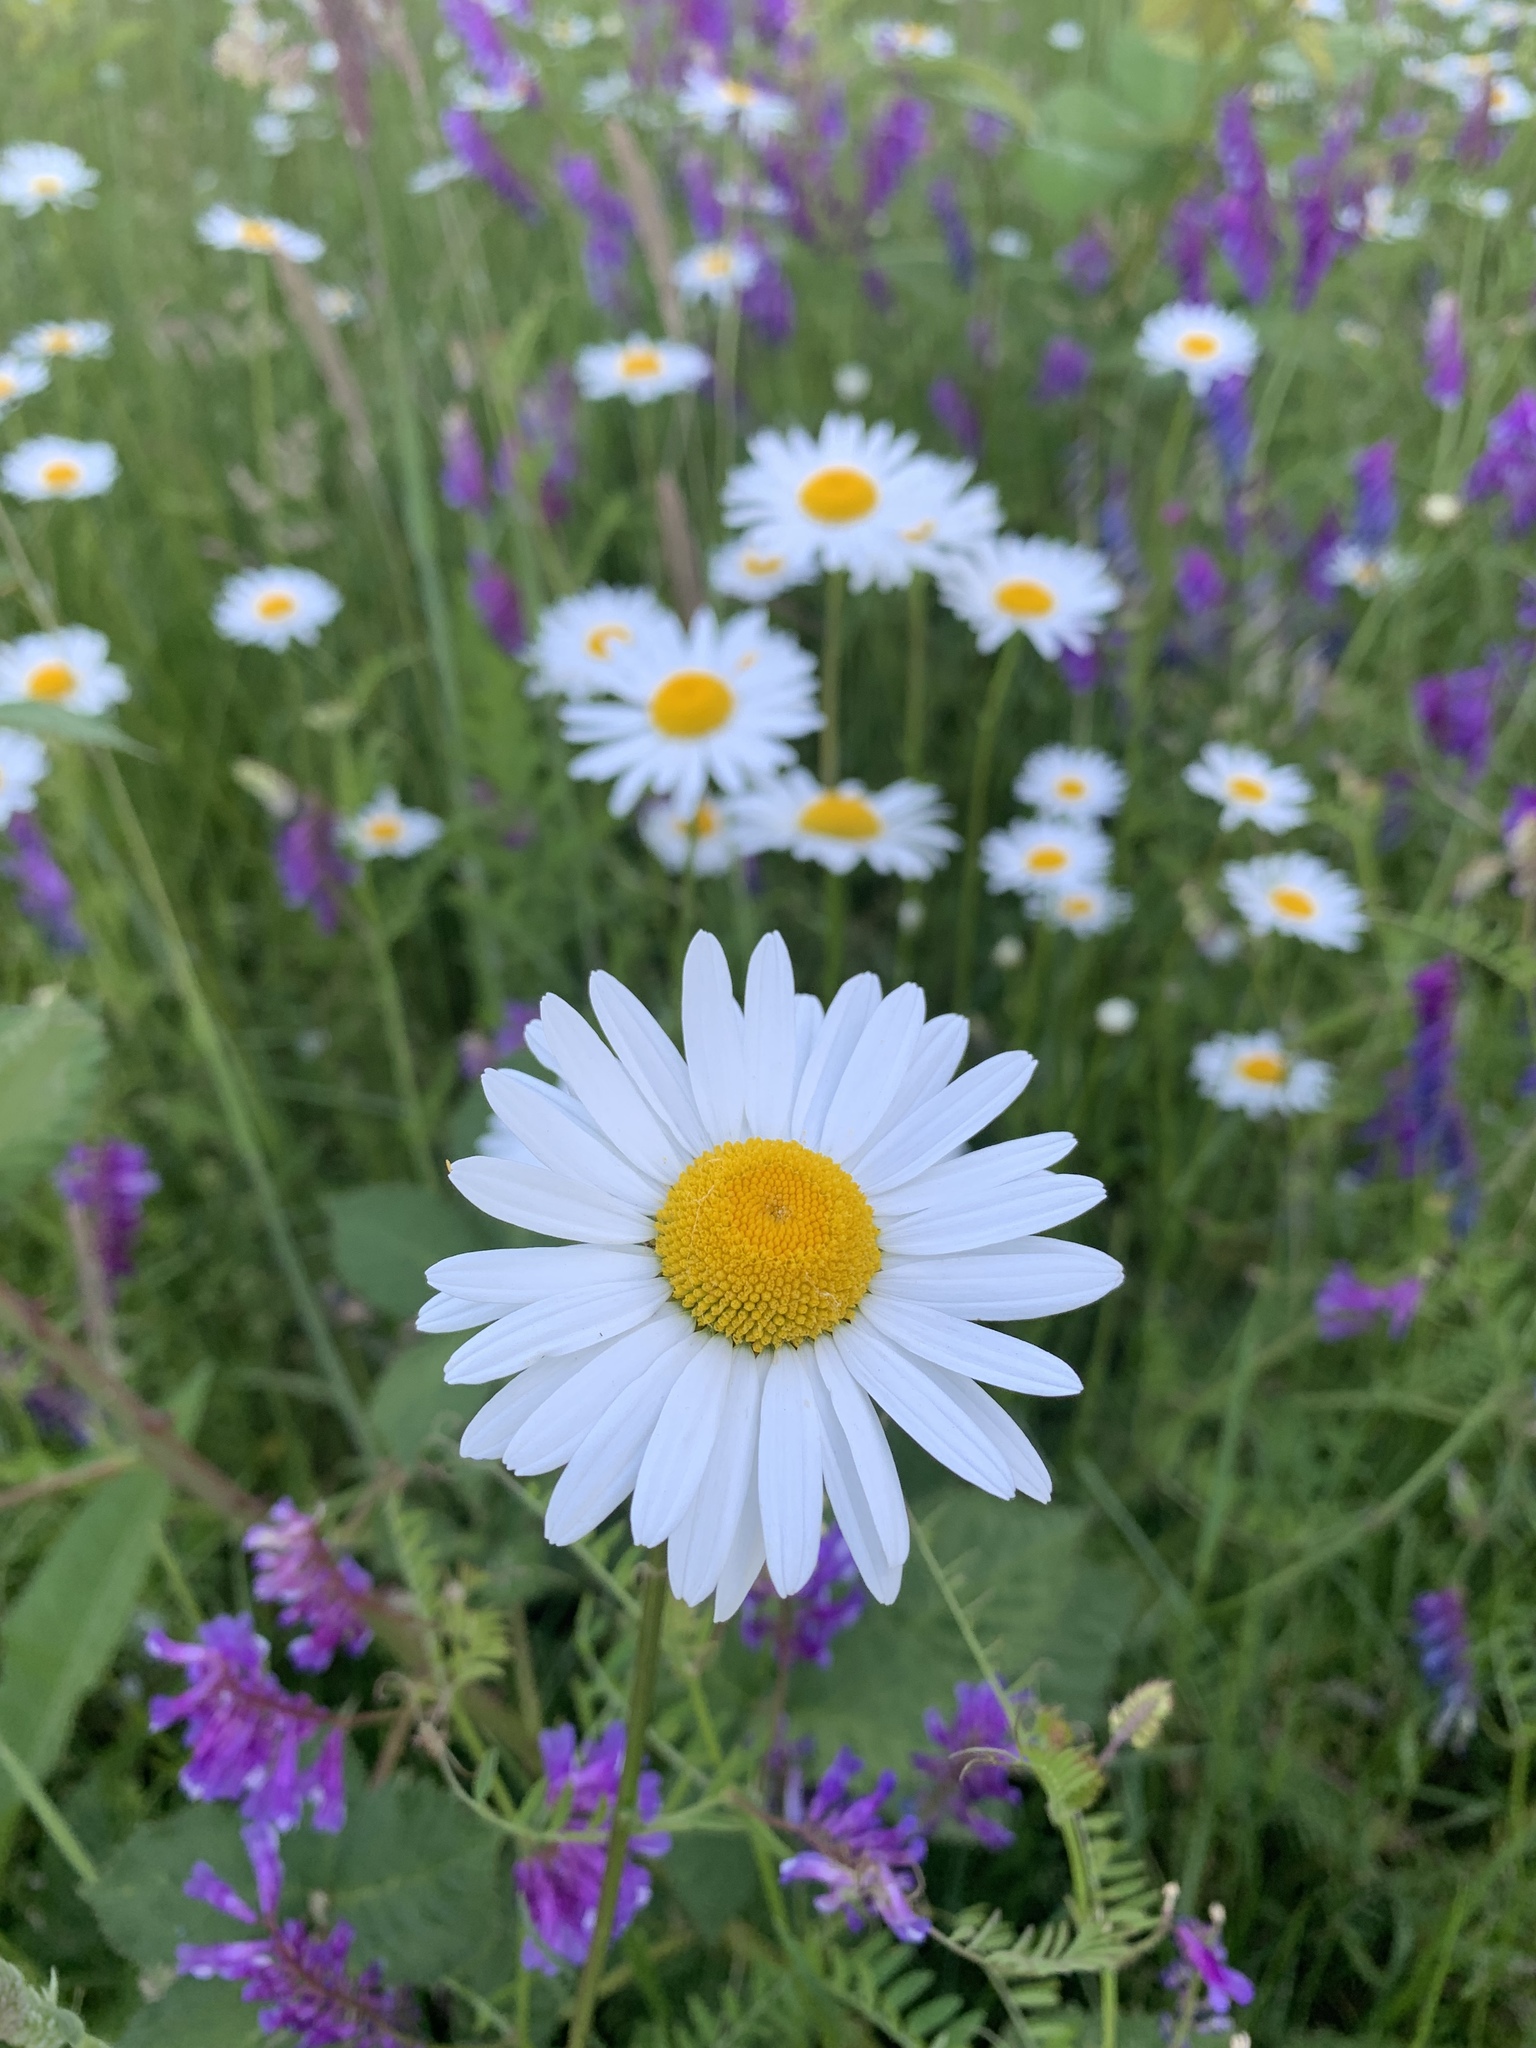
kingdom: Plantae
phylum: Tracheophyta
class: Magnoliopsida
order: Asterales
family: Asteraceae
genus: Leucanthemum
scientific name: Leucanthemum vulgare
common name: Oxeye daisy
